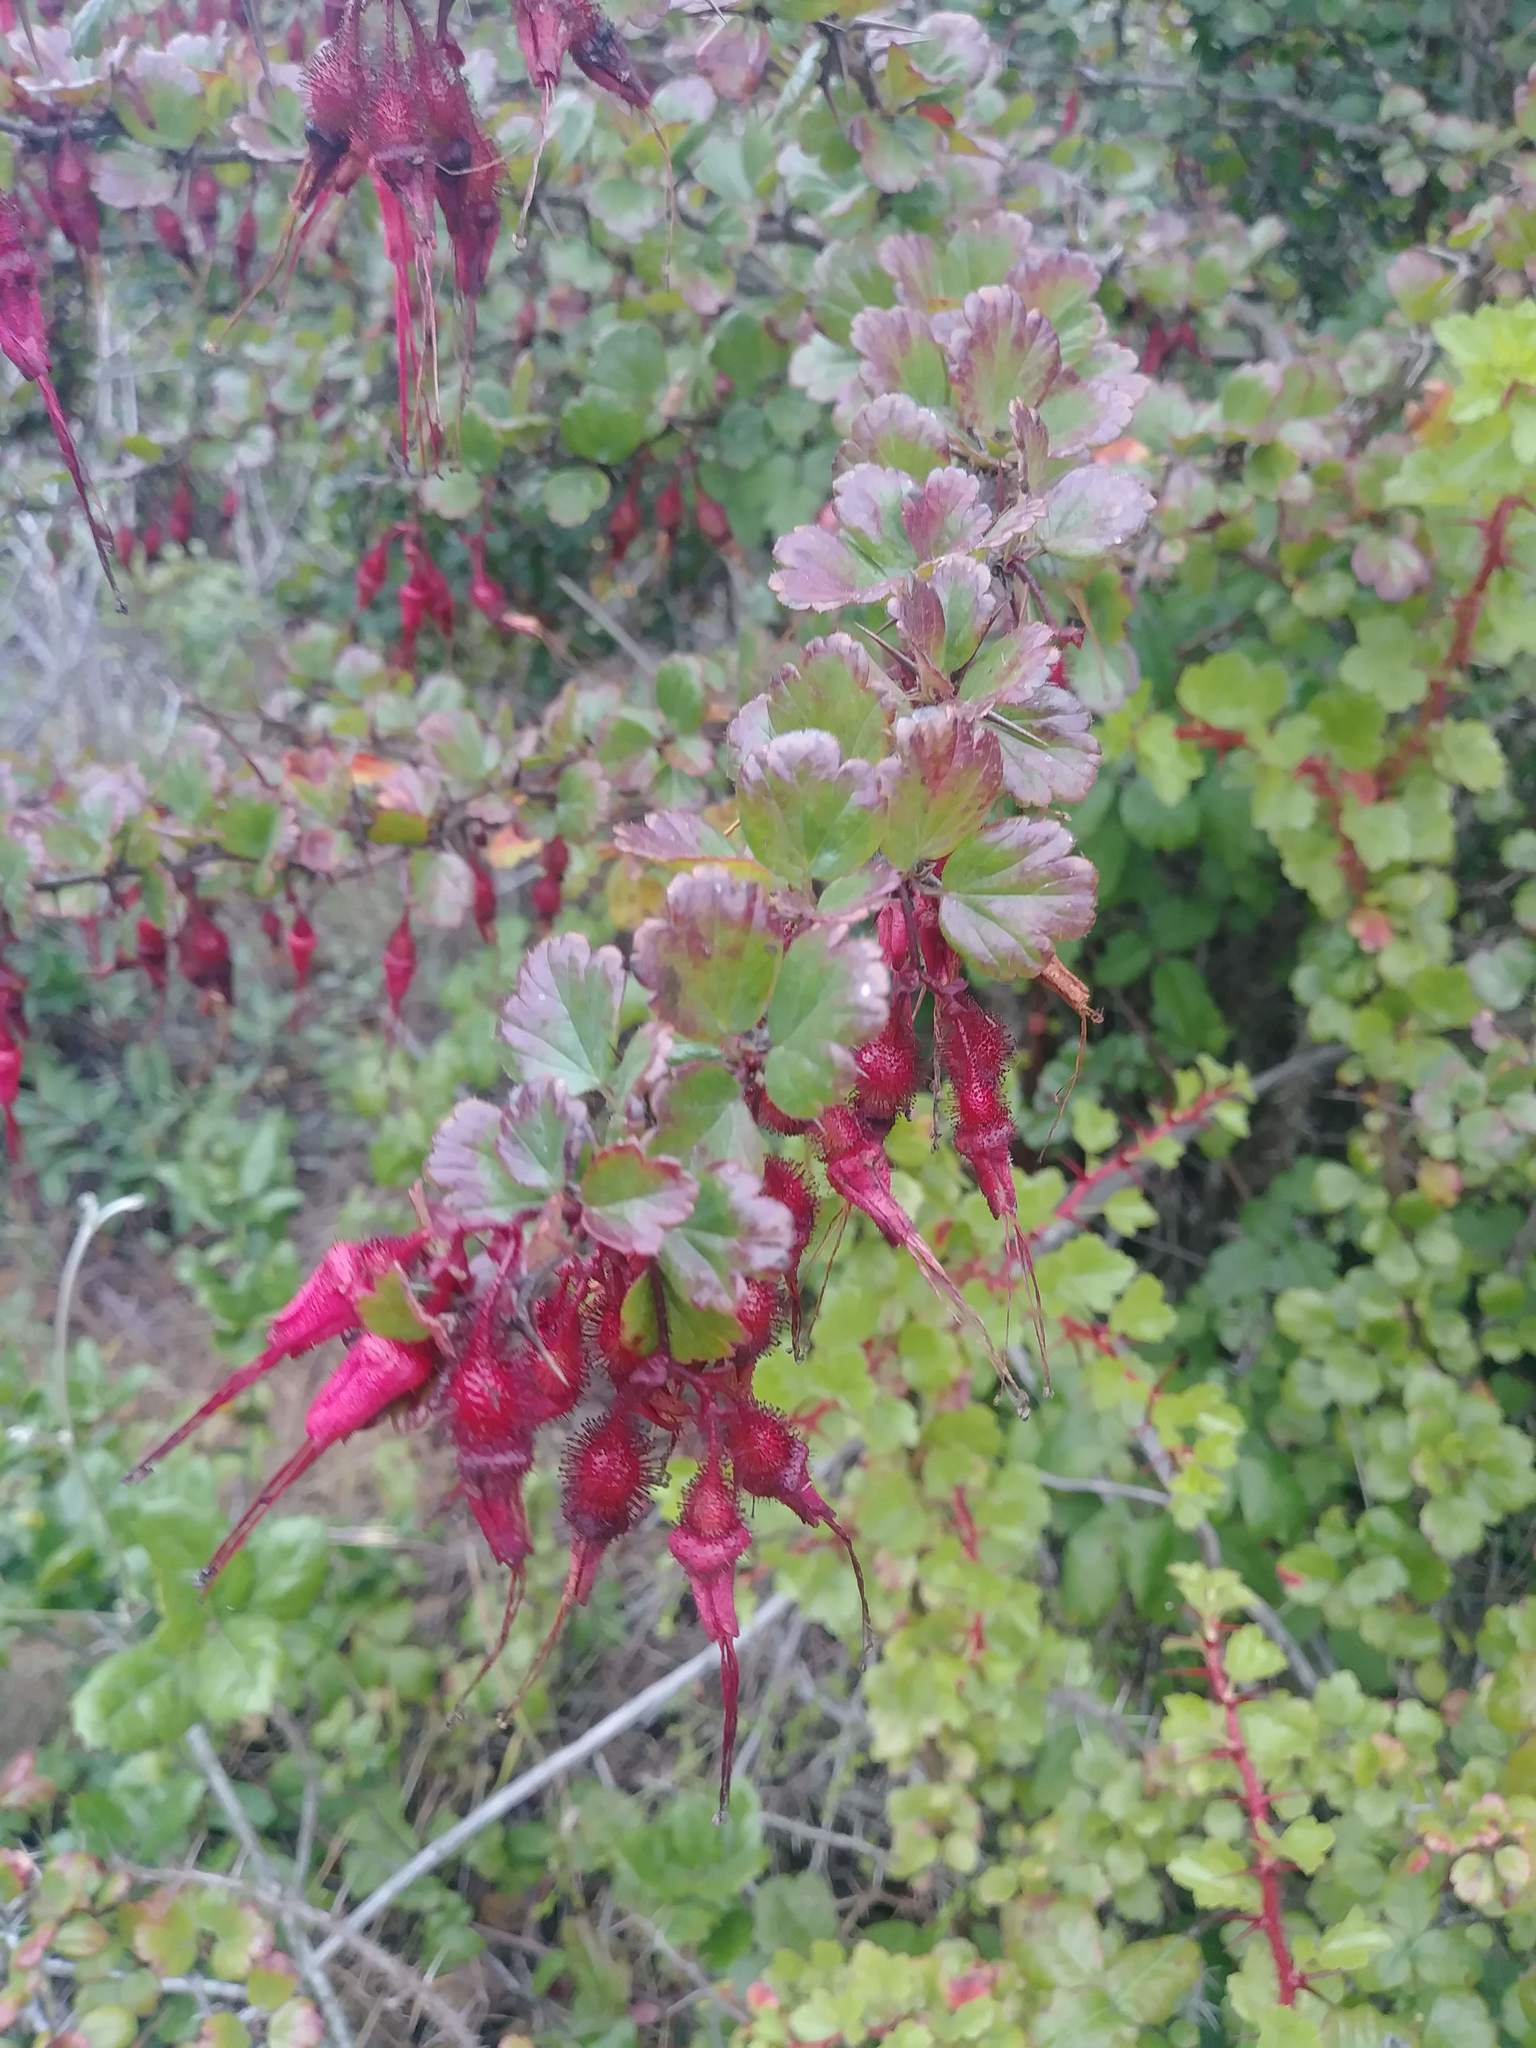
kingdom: Plantae
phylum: Tracheophyta
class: Magnoliopsida
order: Saxifragales
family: Grossulariaceae
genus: Ribes
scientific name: Ribes speciosum
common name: Fuchsia-flower gooseberry
